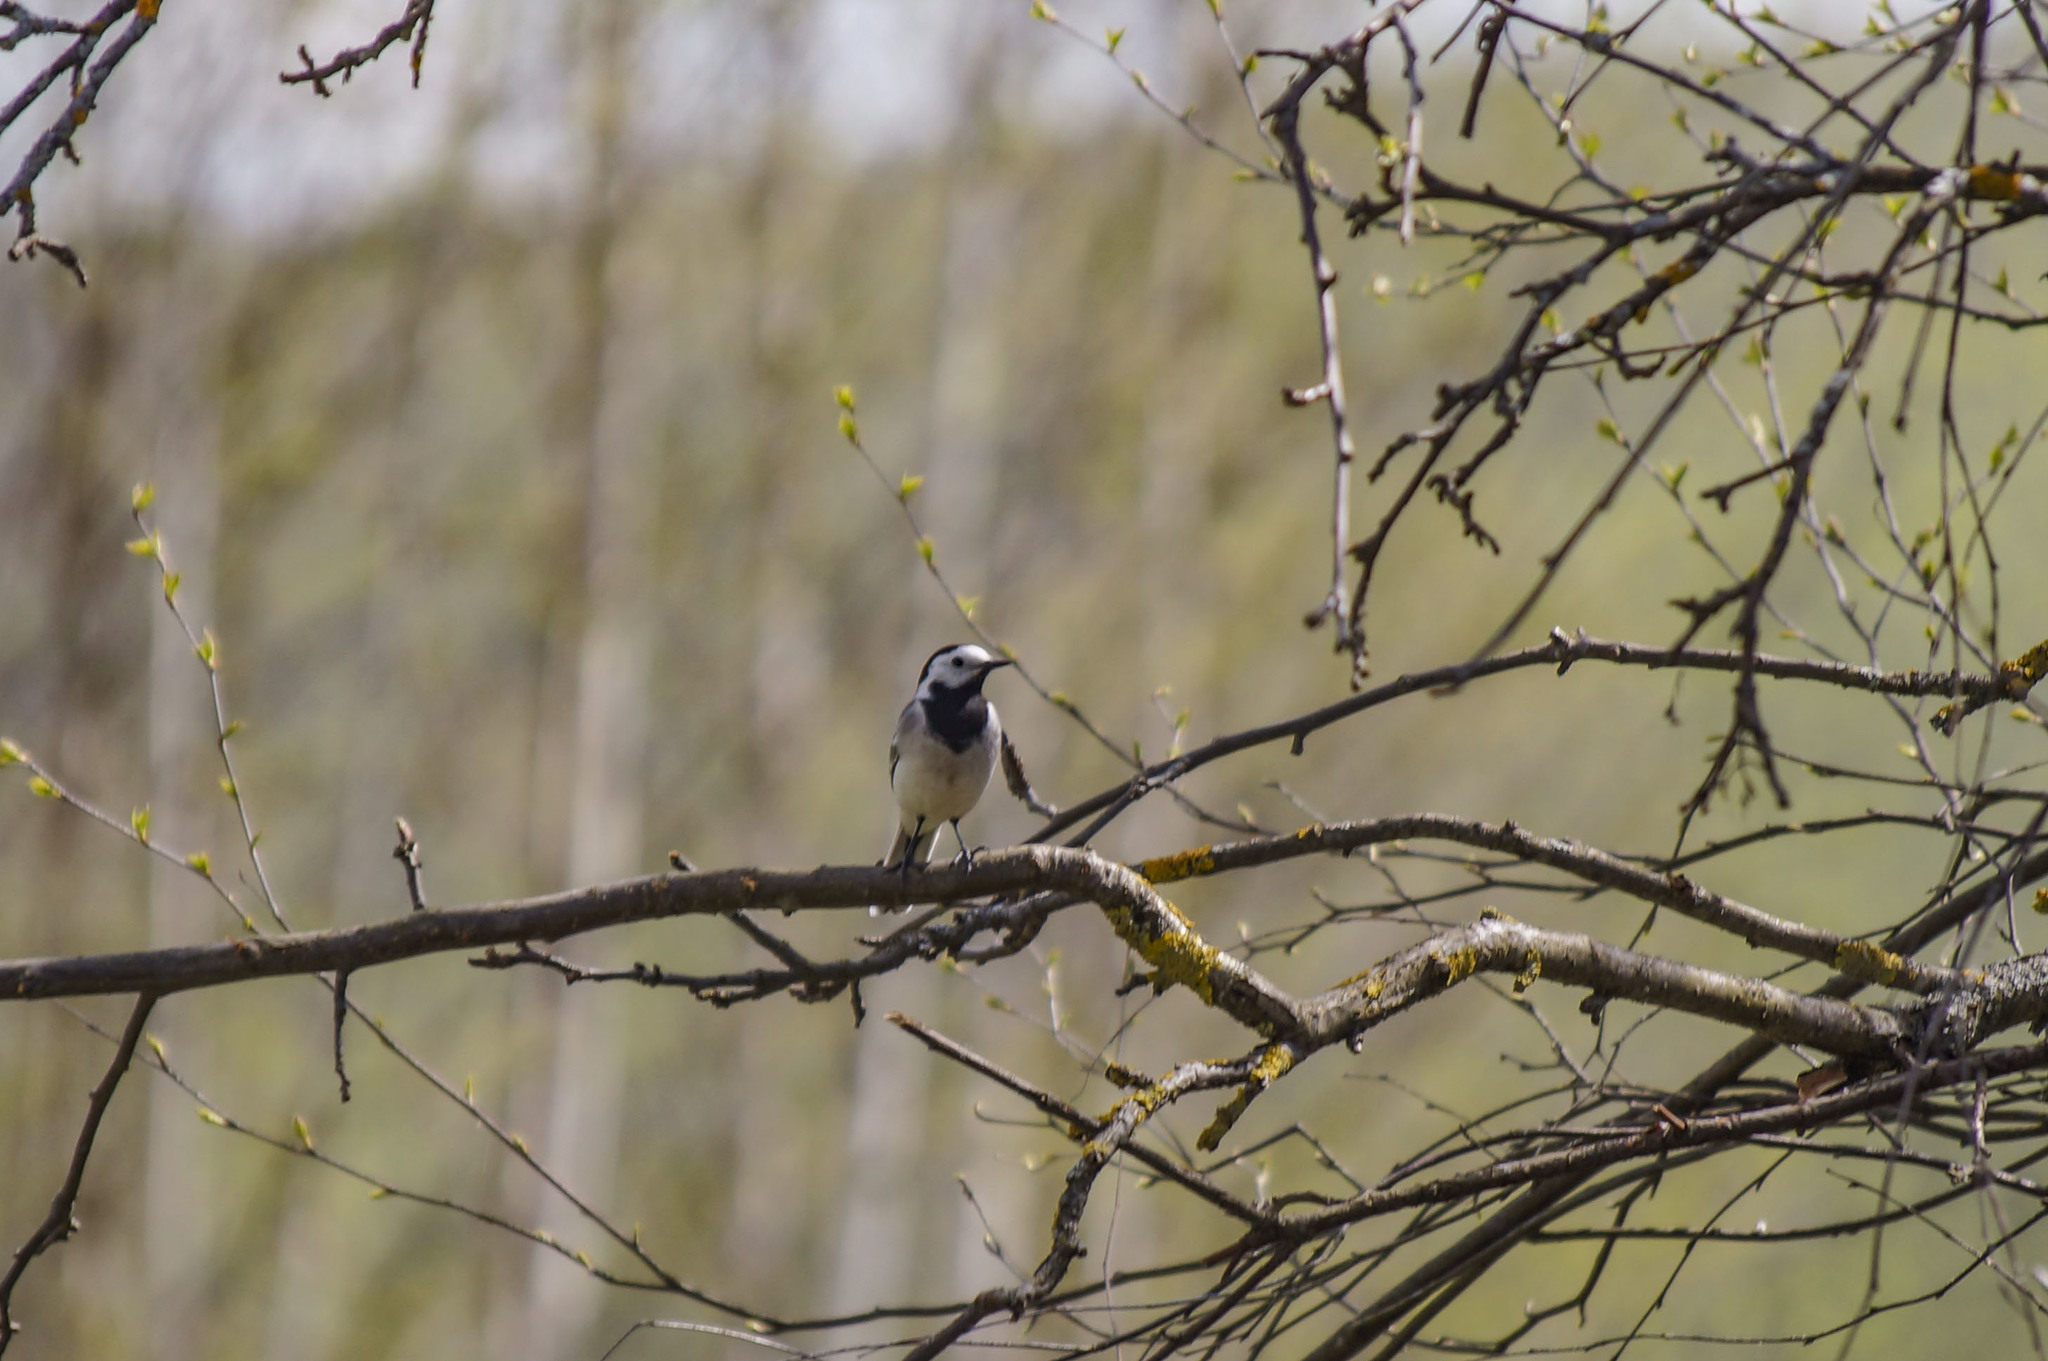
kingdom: Animalia
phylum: Chordata
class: Aves
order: Passeriformes
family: Motacillidae
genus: Motacilla
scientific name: Motacilla alba
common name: White wagtail
